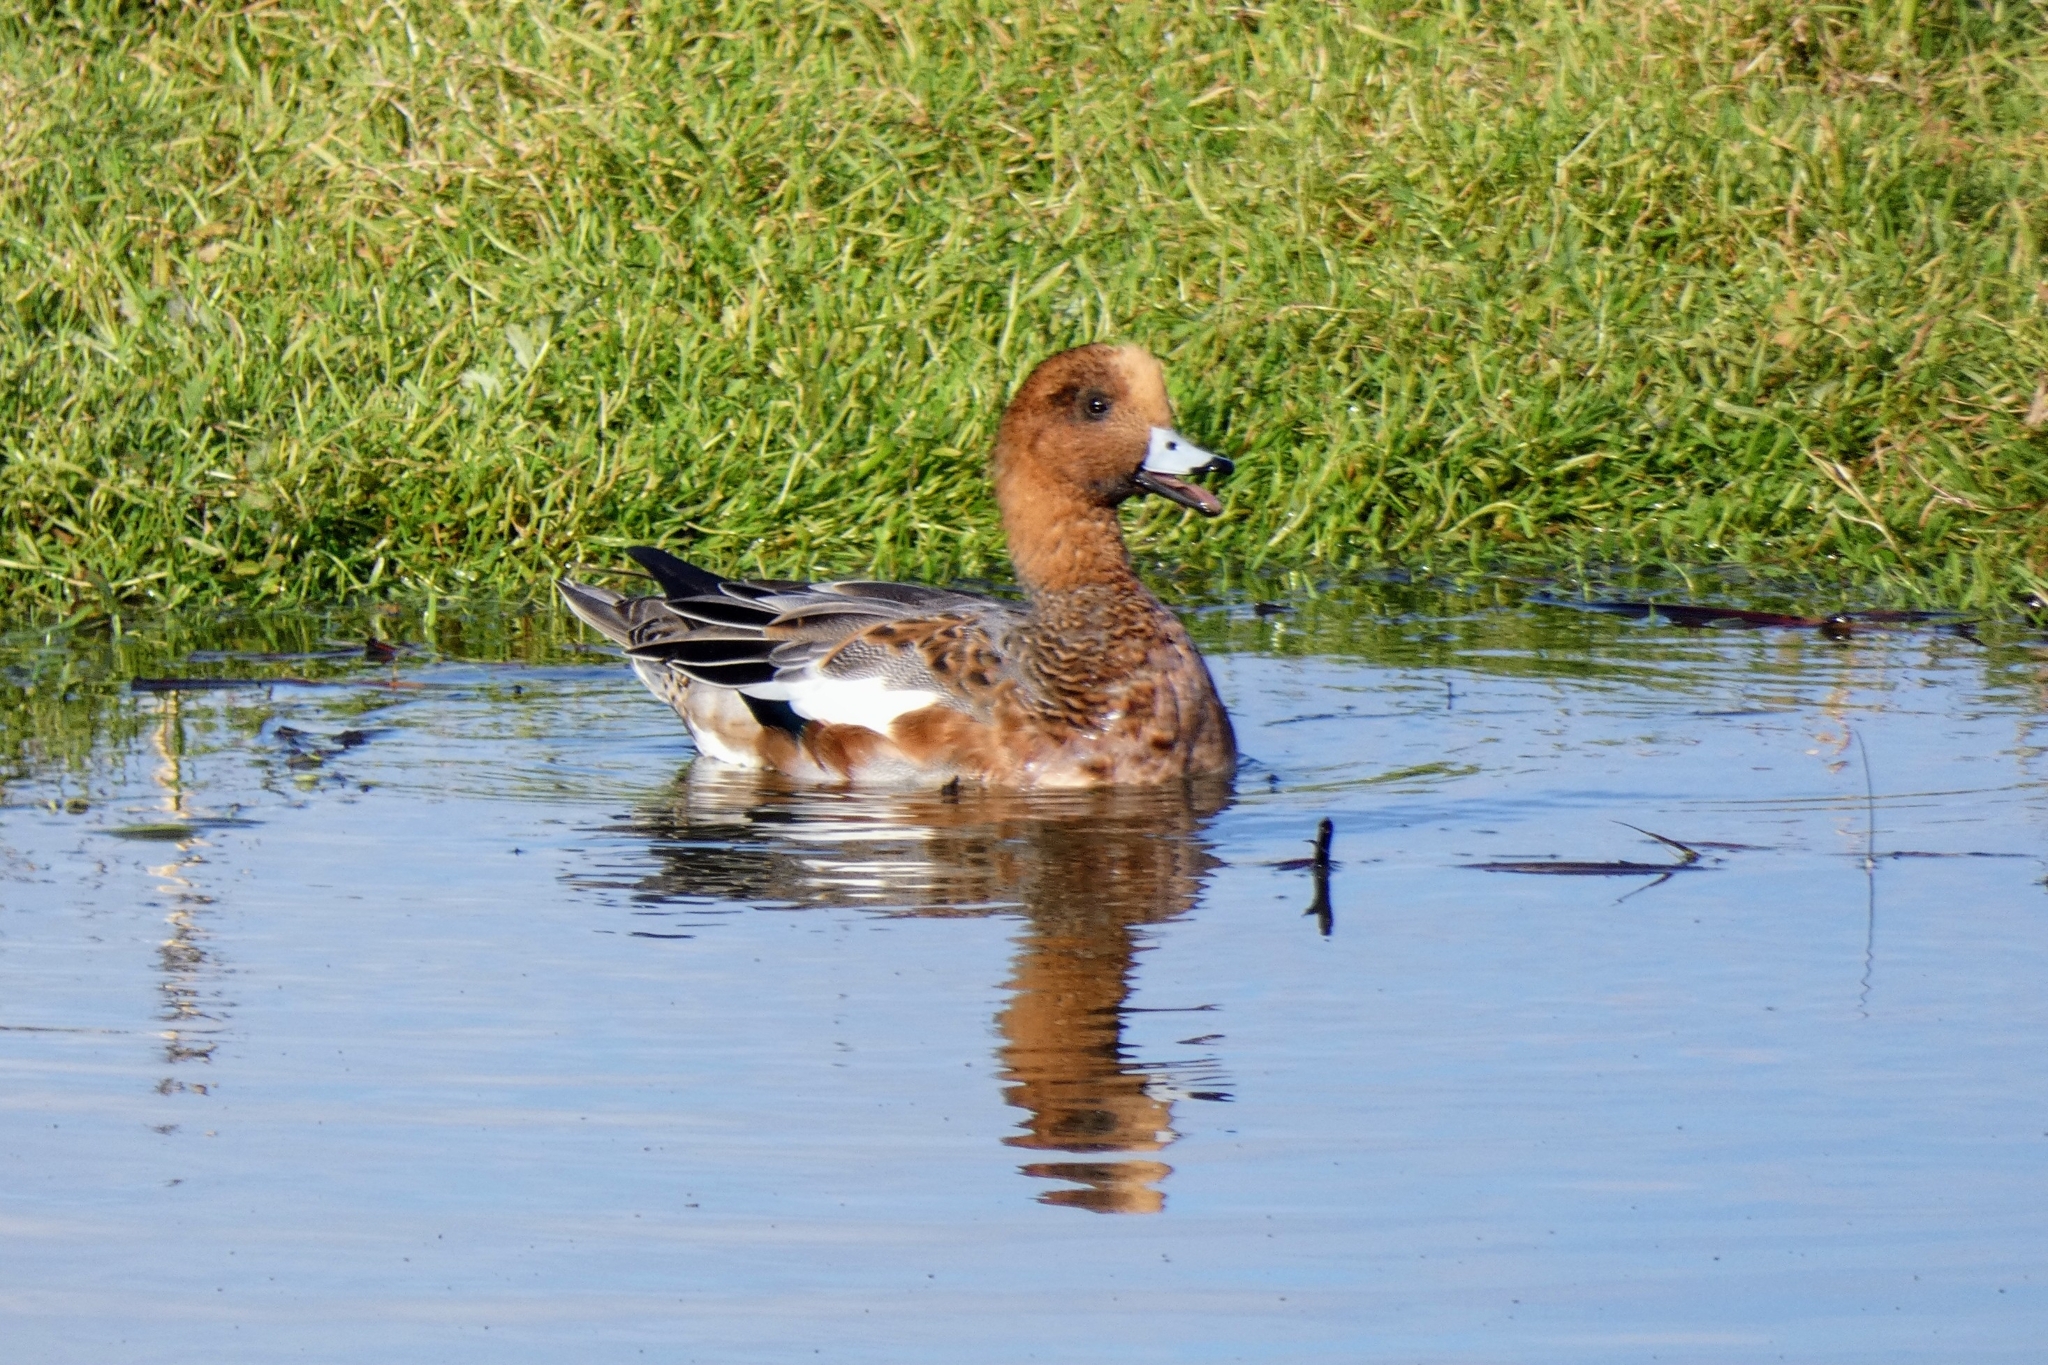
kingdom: Animalia
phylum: Chordata
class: Aves
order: Anseriformes
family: Anatidae
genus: Mareca
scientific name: Mareca penelope
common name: Eurasian wigeon
